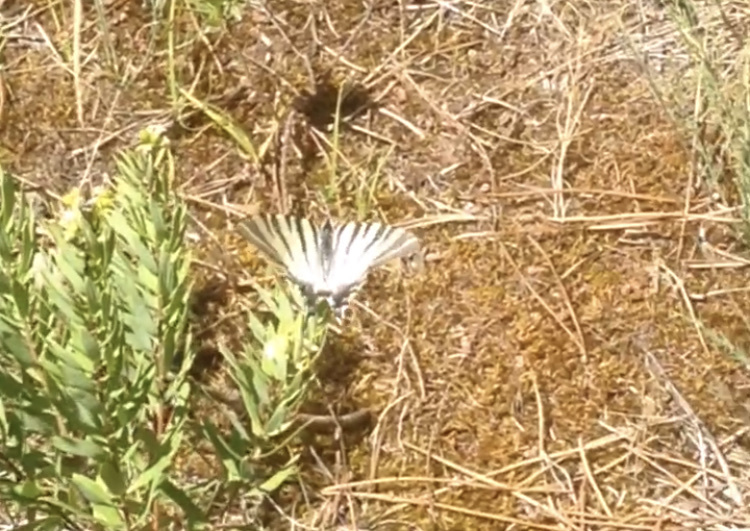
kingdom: Animalia
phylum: Arthropoda
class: Insecta
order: Lepidoptera
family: Papilionidae
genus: Iphiclides
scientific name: Iphiclides podalirius
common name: Scarce swallowtail
